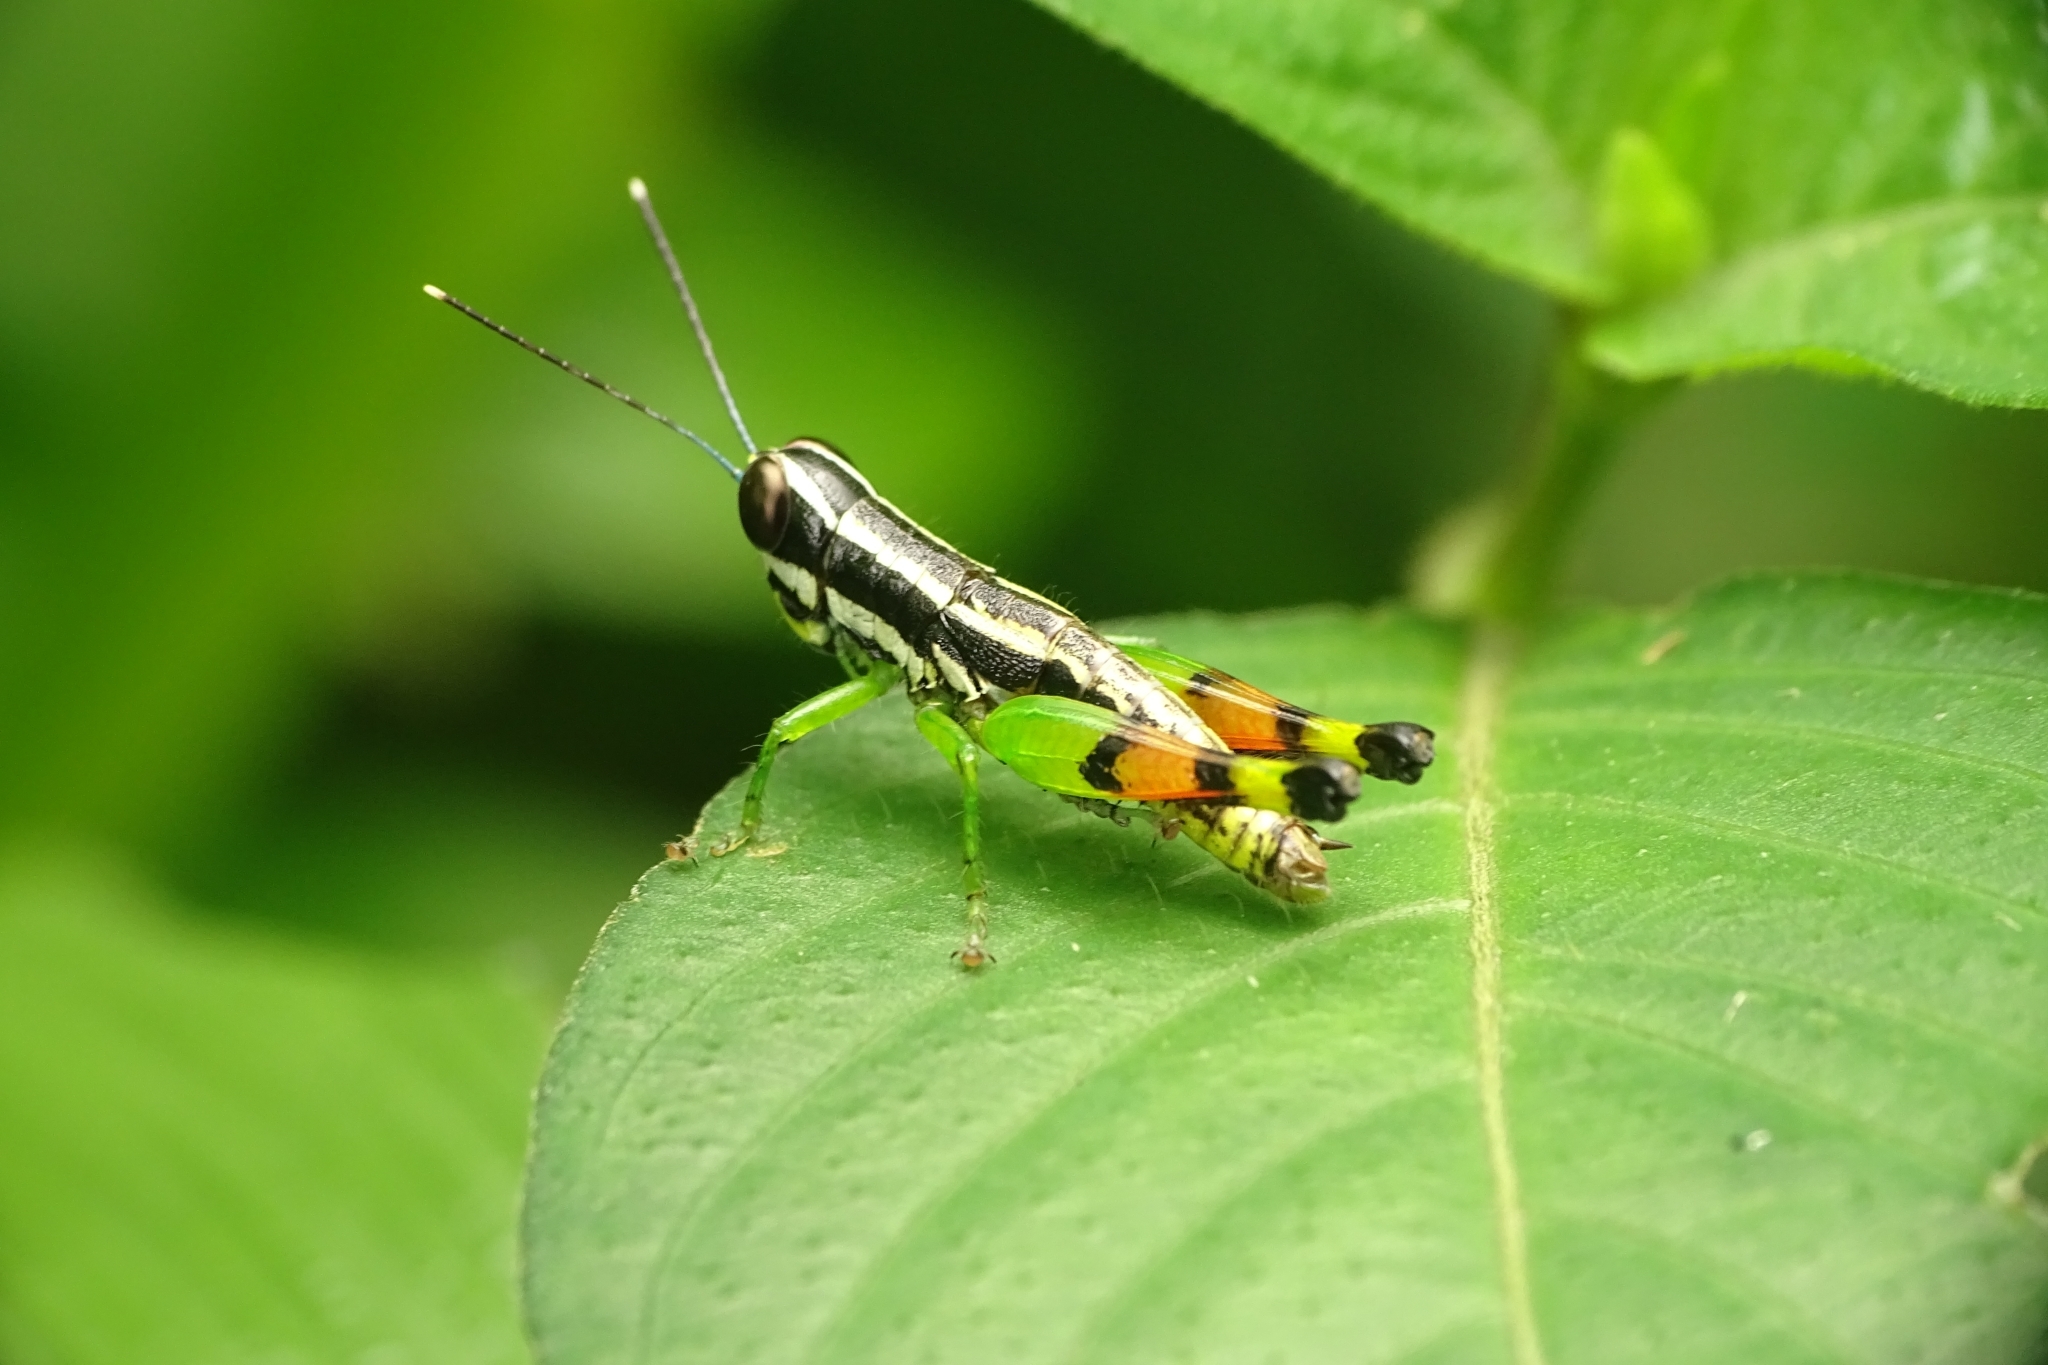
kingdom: Animalia
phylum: Arthropoda
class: Insecta
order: Orthoptera
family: Acrididae
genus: Chitaura
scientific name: Chitaura indica
